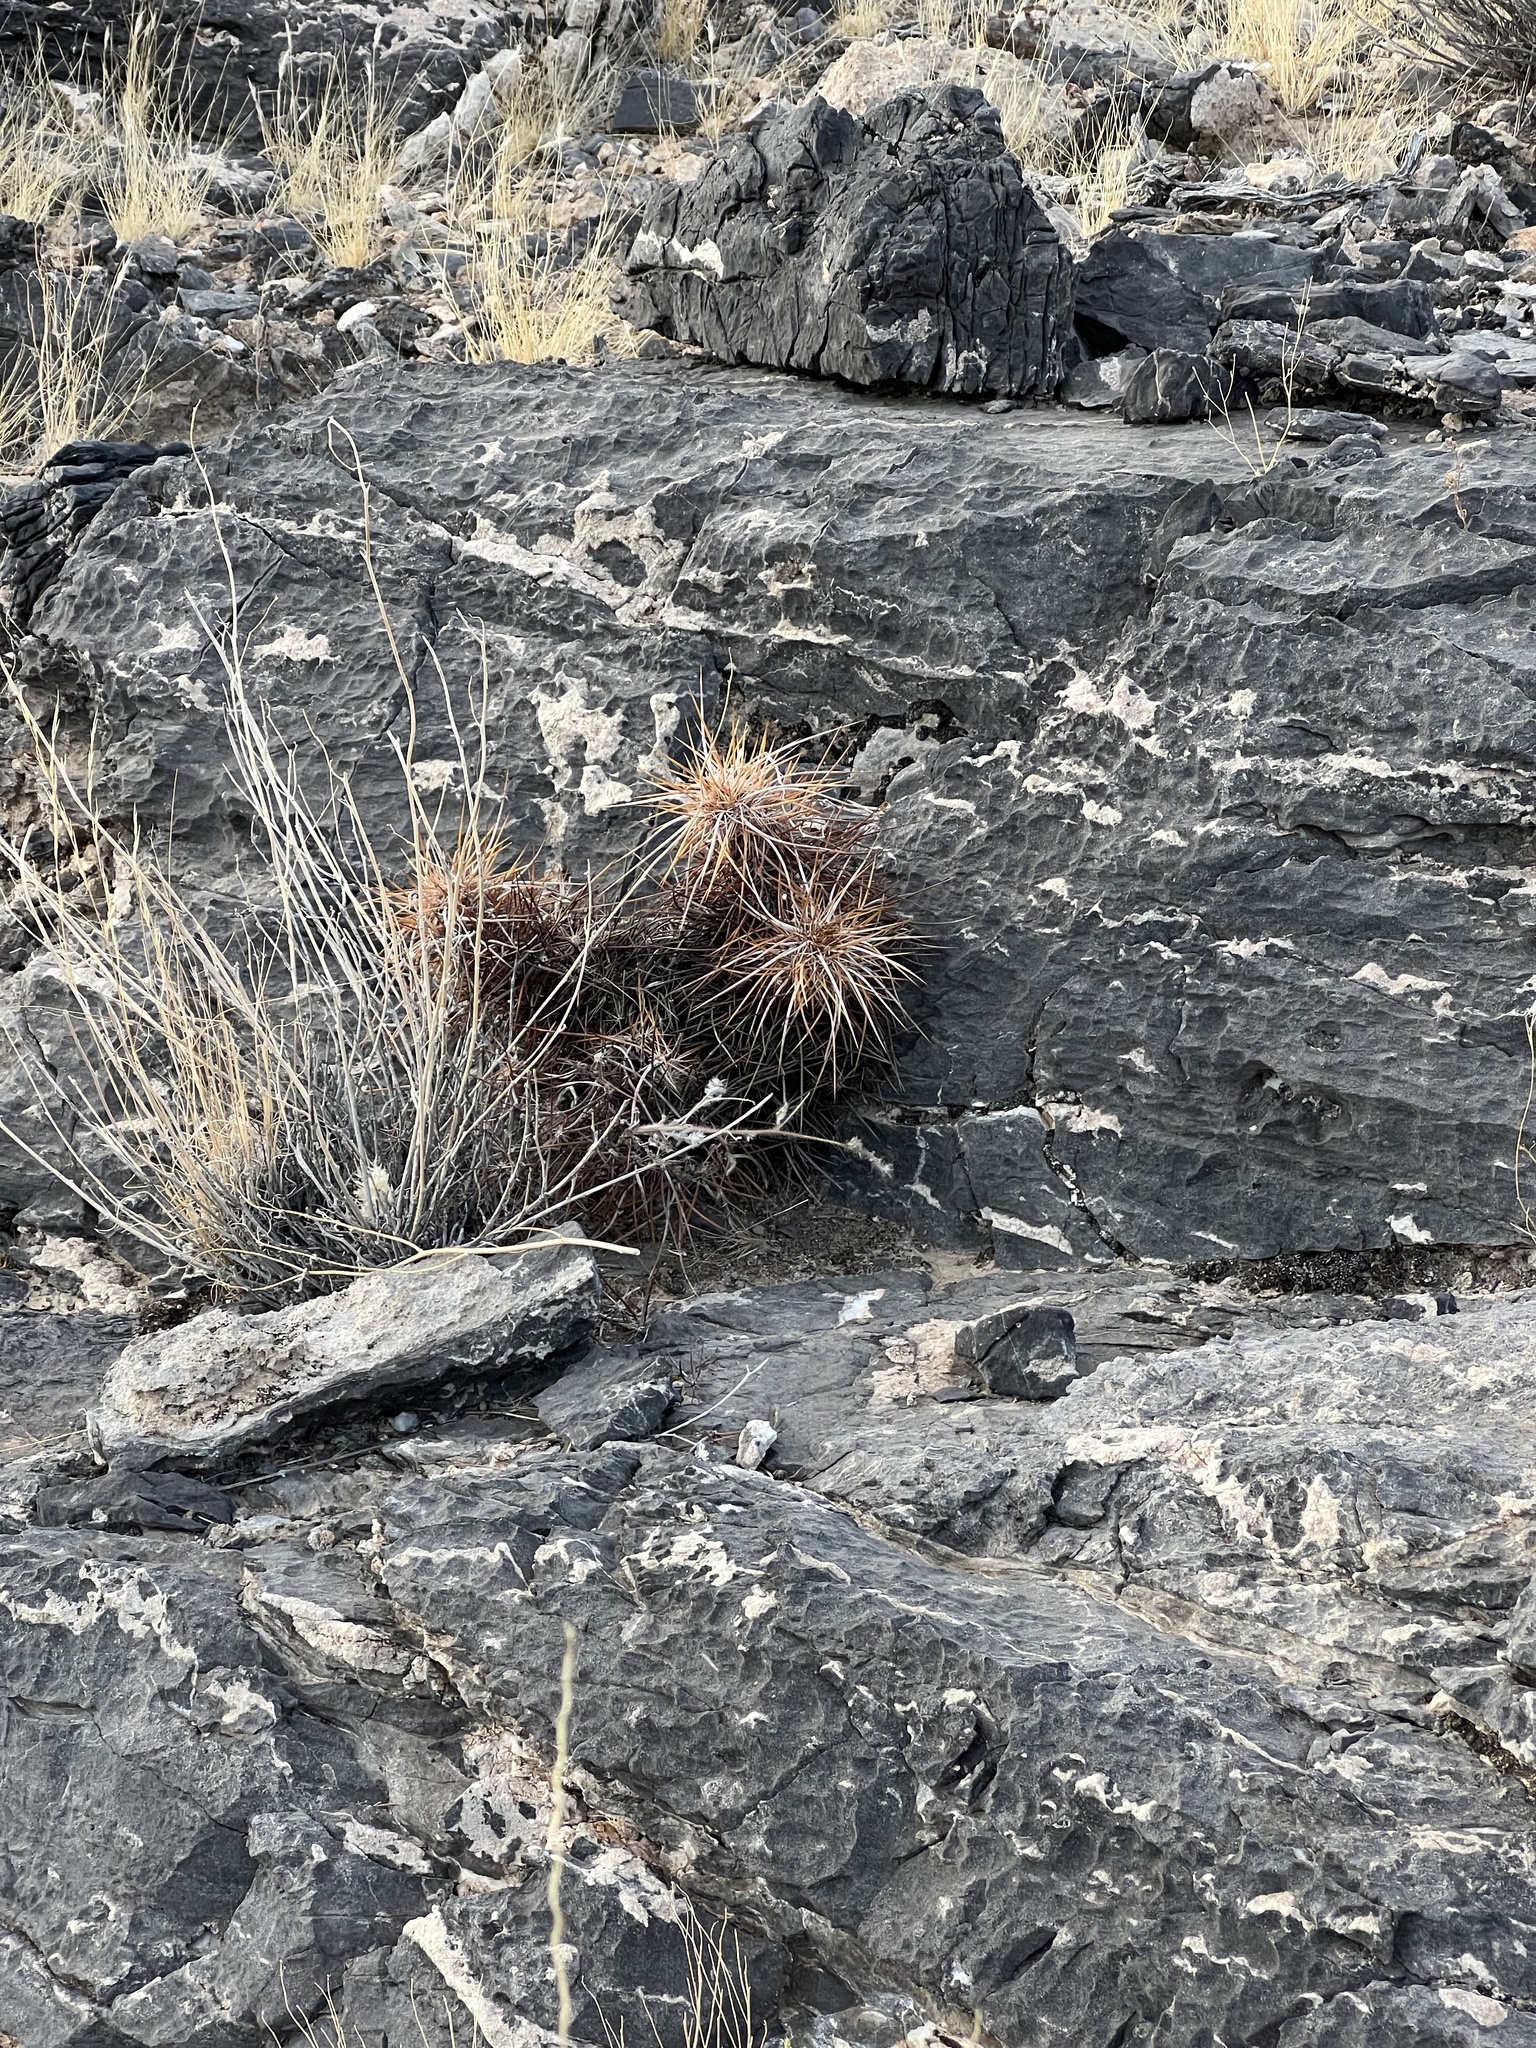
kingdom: Plantae
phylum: Tracheophyta
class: Magnoliopsida
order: Caryophyllales
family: Cactaceae
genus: Echinocereus
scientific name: Echinocereus engelmannii
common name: Engelmann's hedgehog cactus
